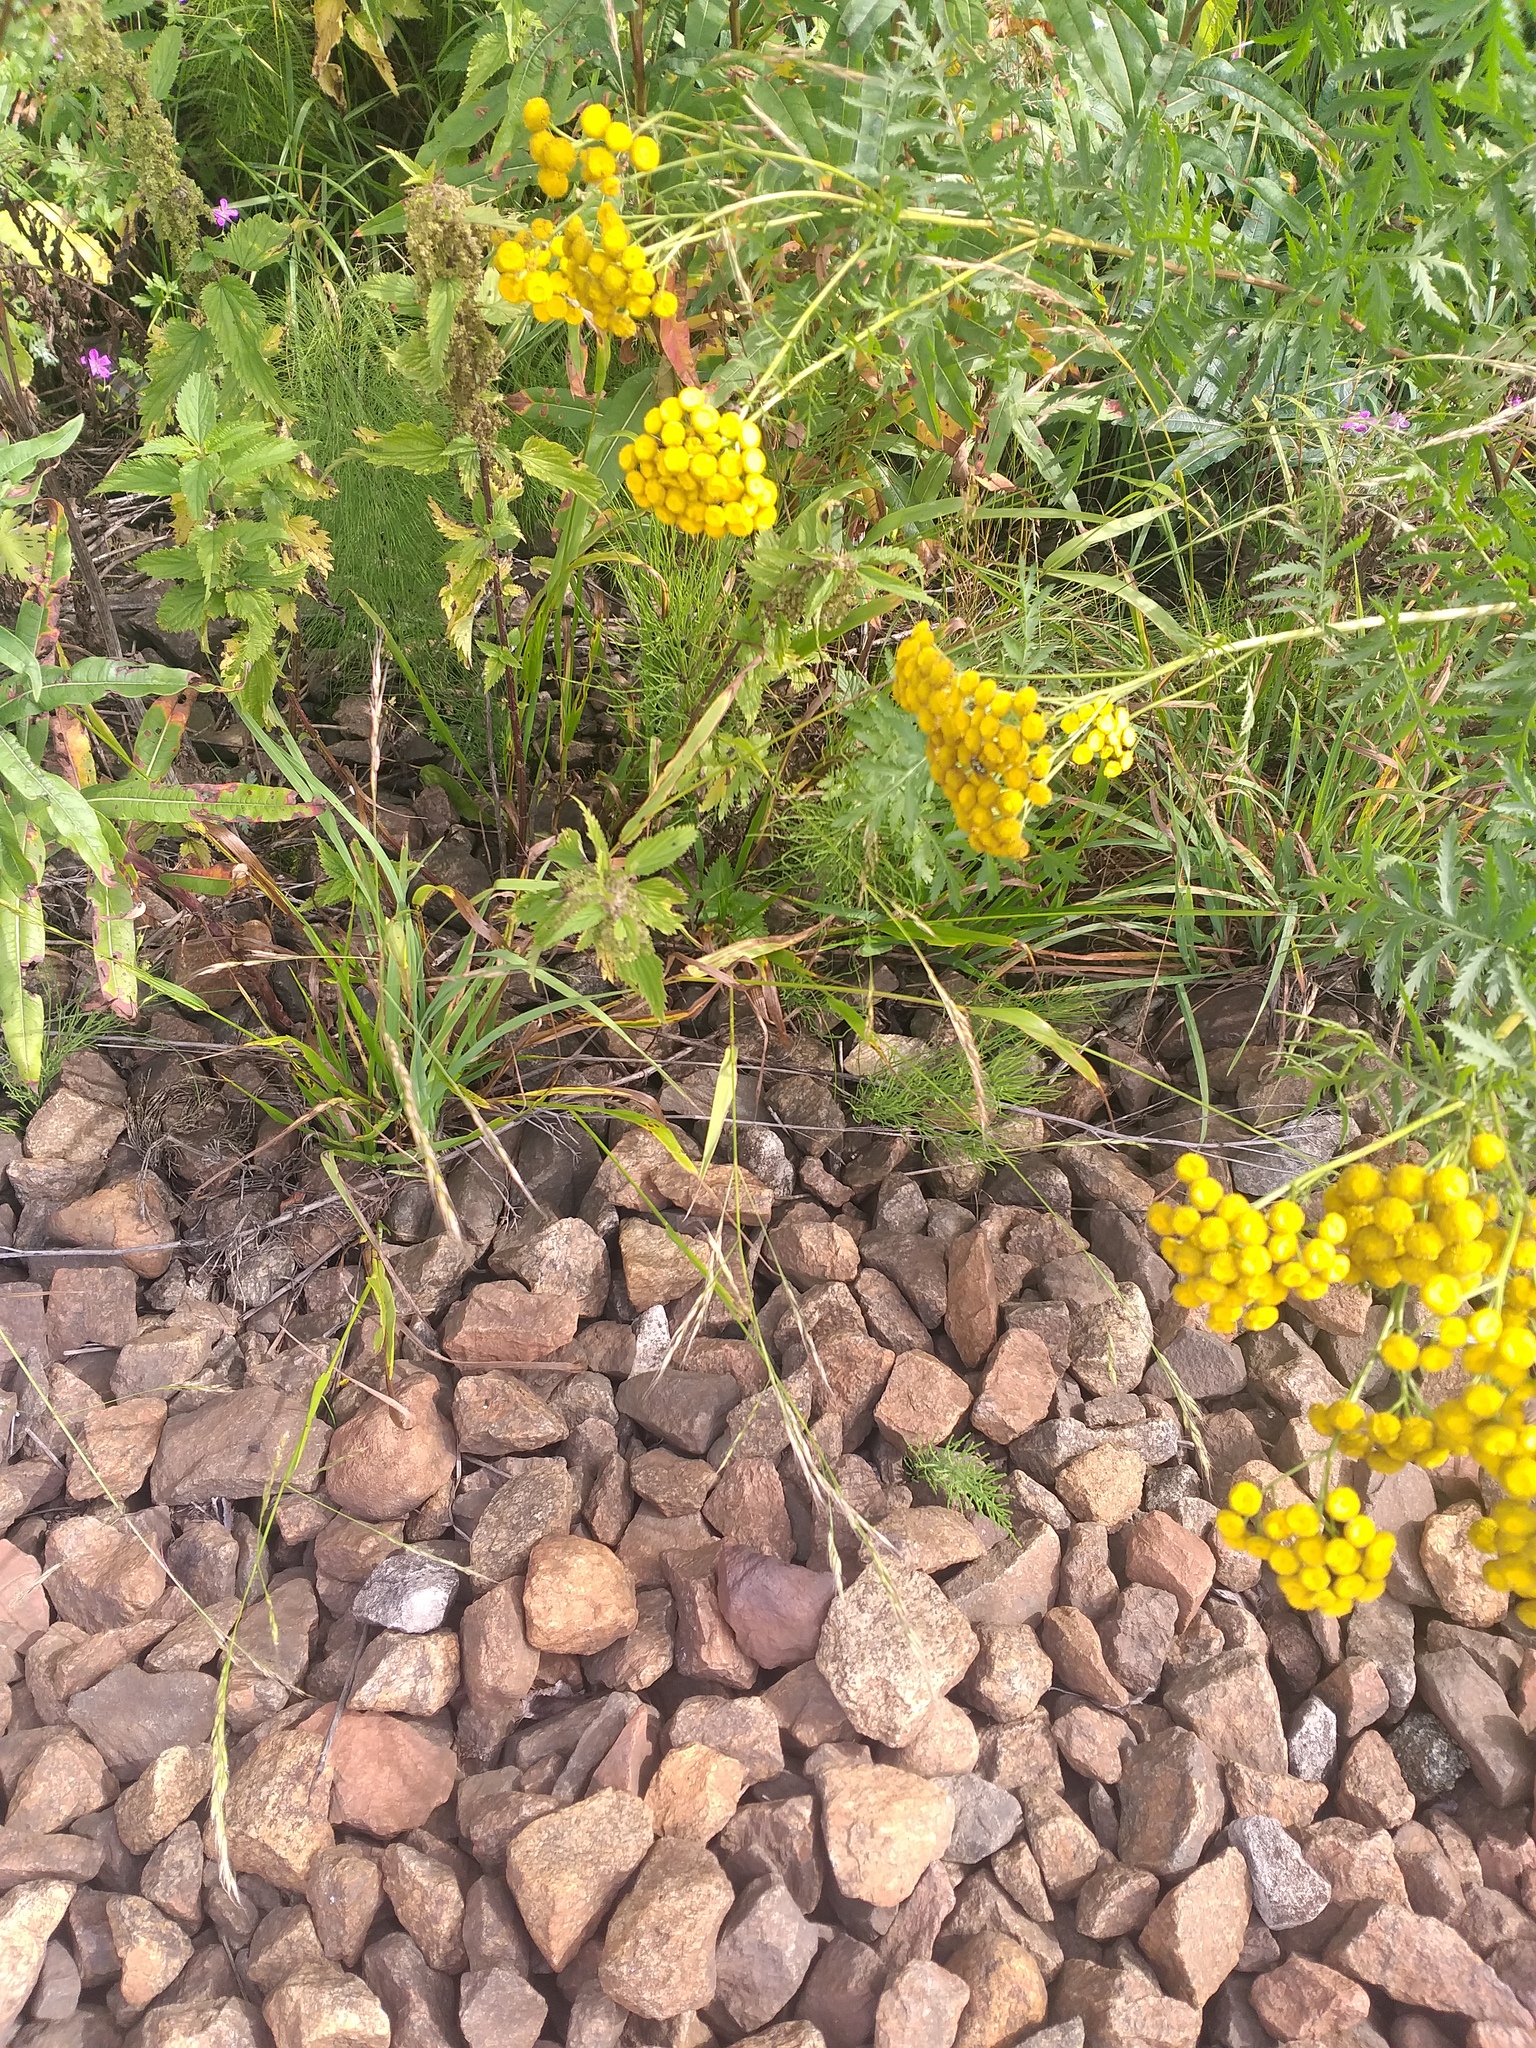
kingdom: Plantae
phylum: Tracheophyta
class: Liliopsida
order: Poales
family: Poaceae
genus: Lolium
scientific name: Lolium giganteum
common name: Giant fescue
